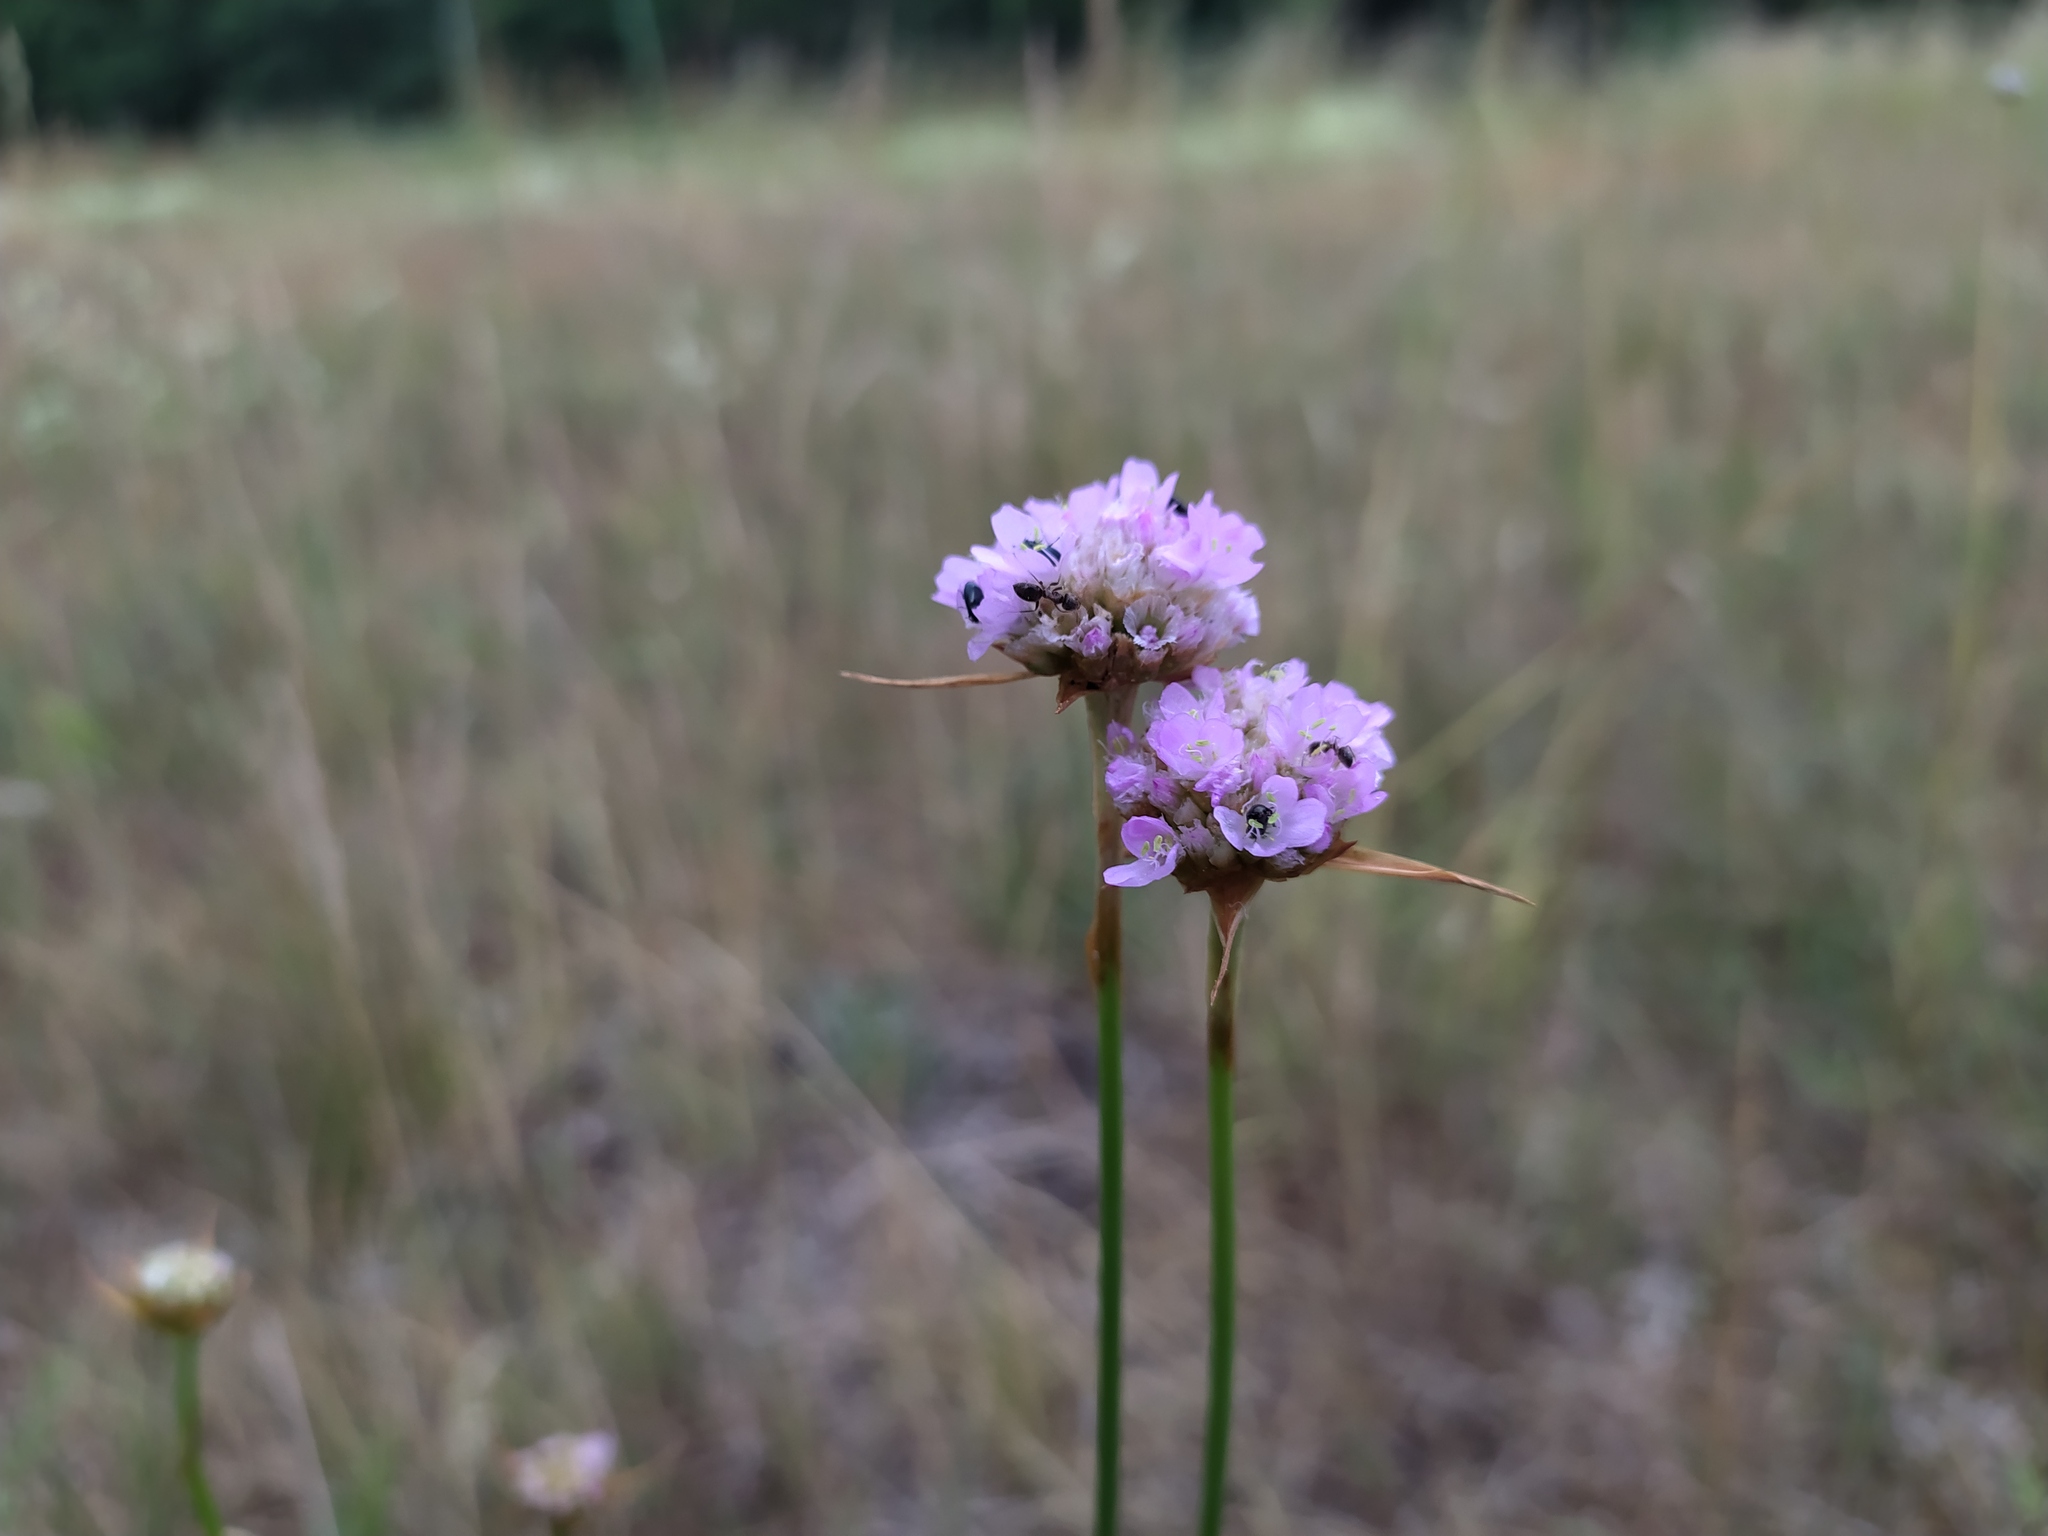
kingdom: Plantae
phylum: Tracheophyta
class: Magnoliopsida
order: Caryophyllales
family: Plumbaginaceae
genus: Armeria
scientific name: Armeria maritima
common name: Thrift
